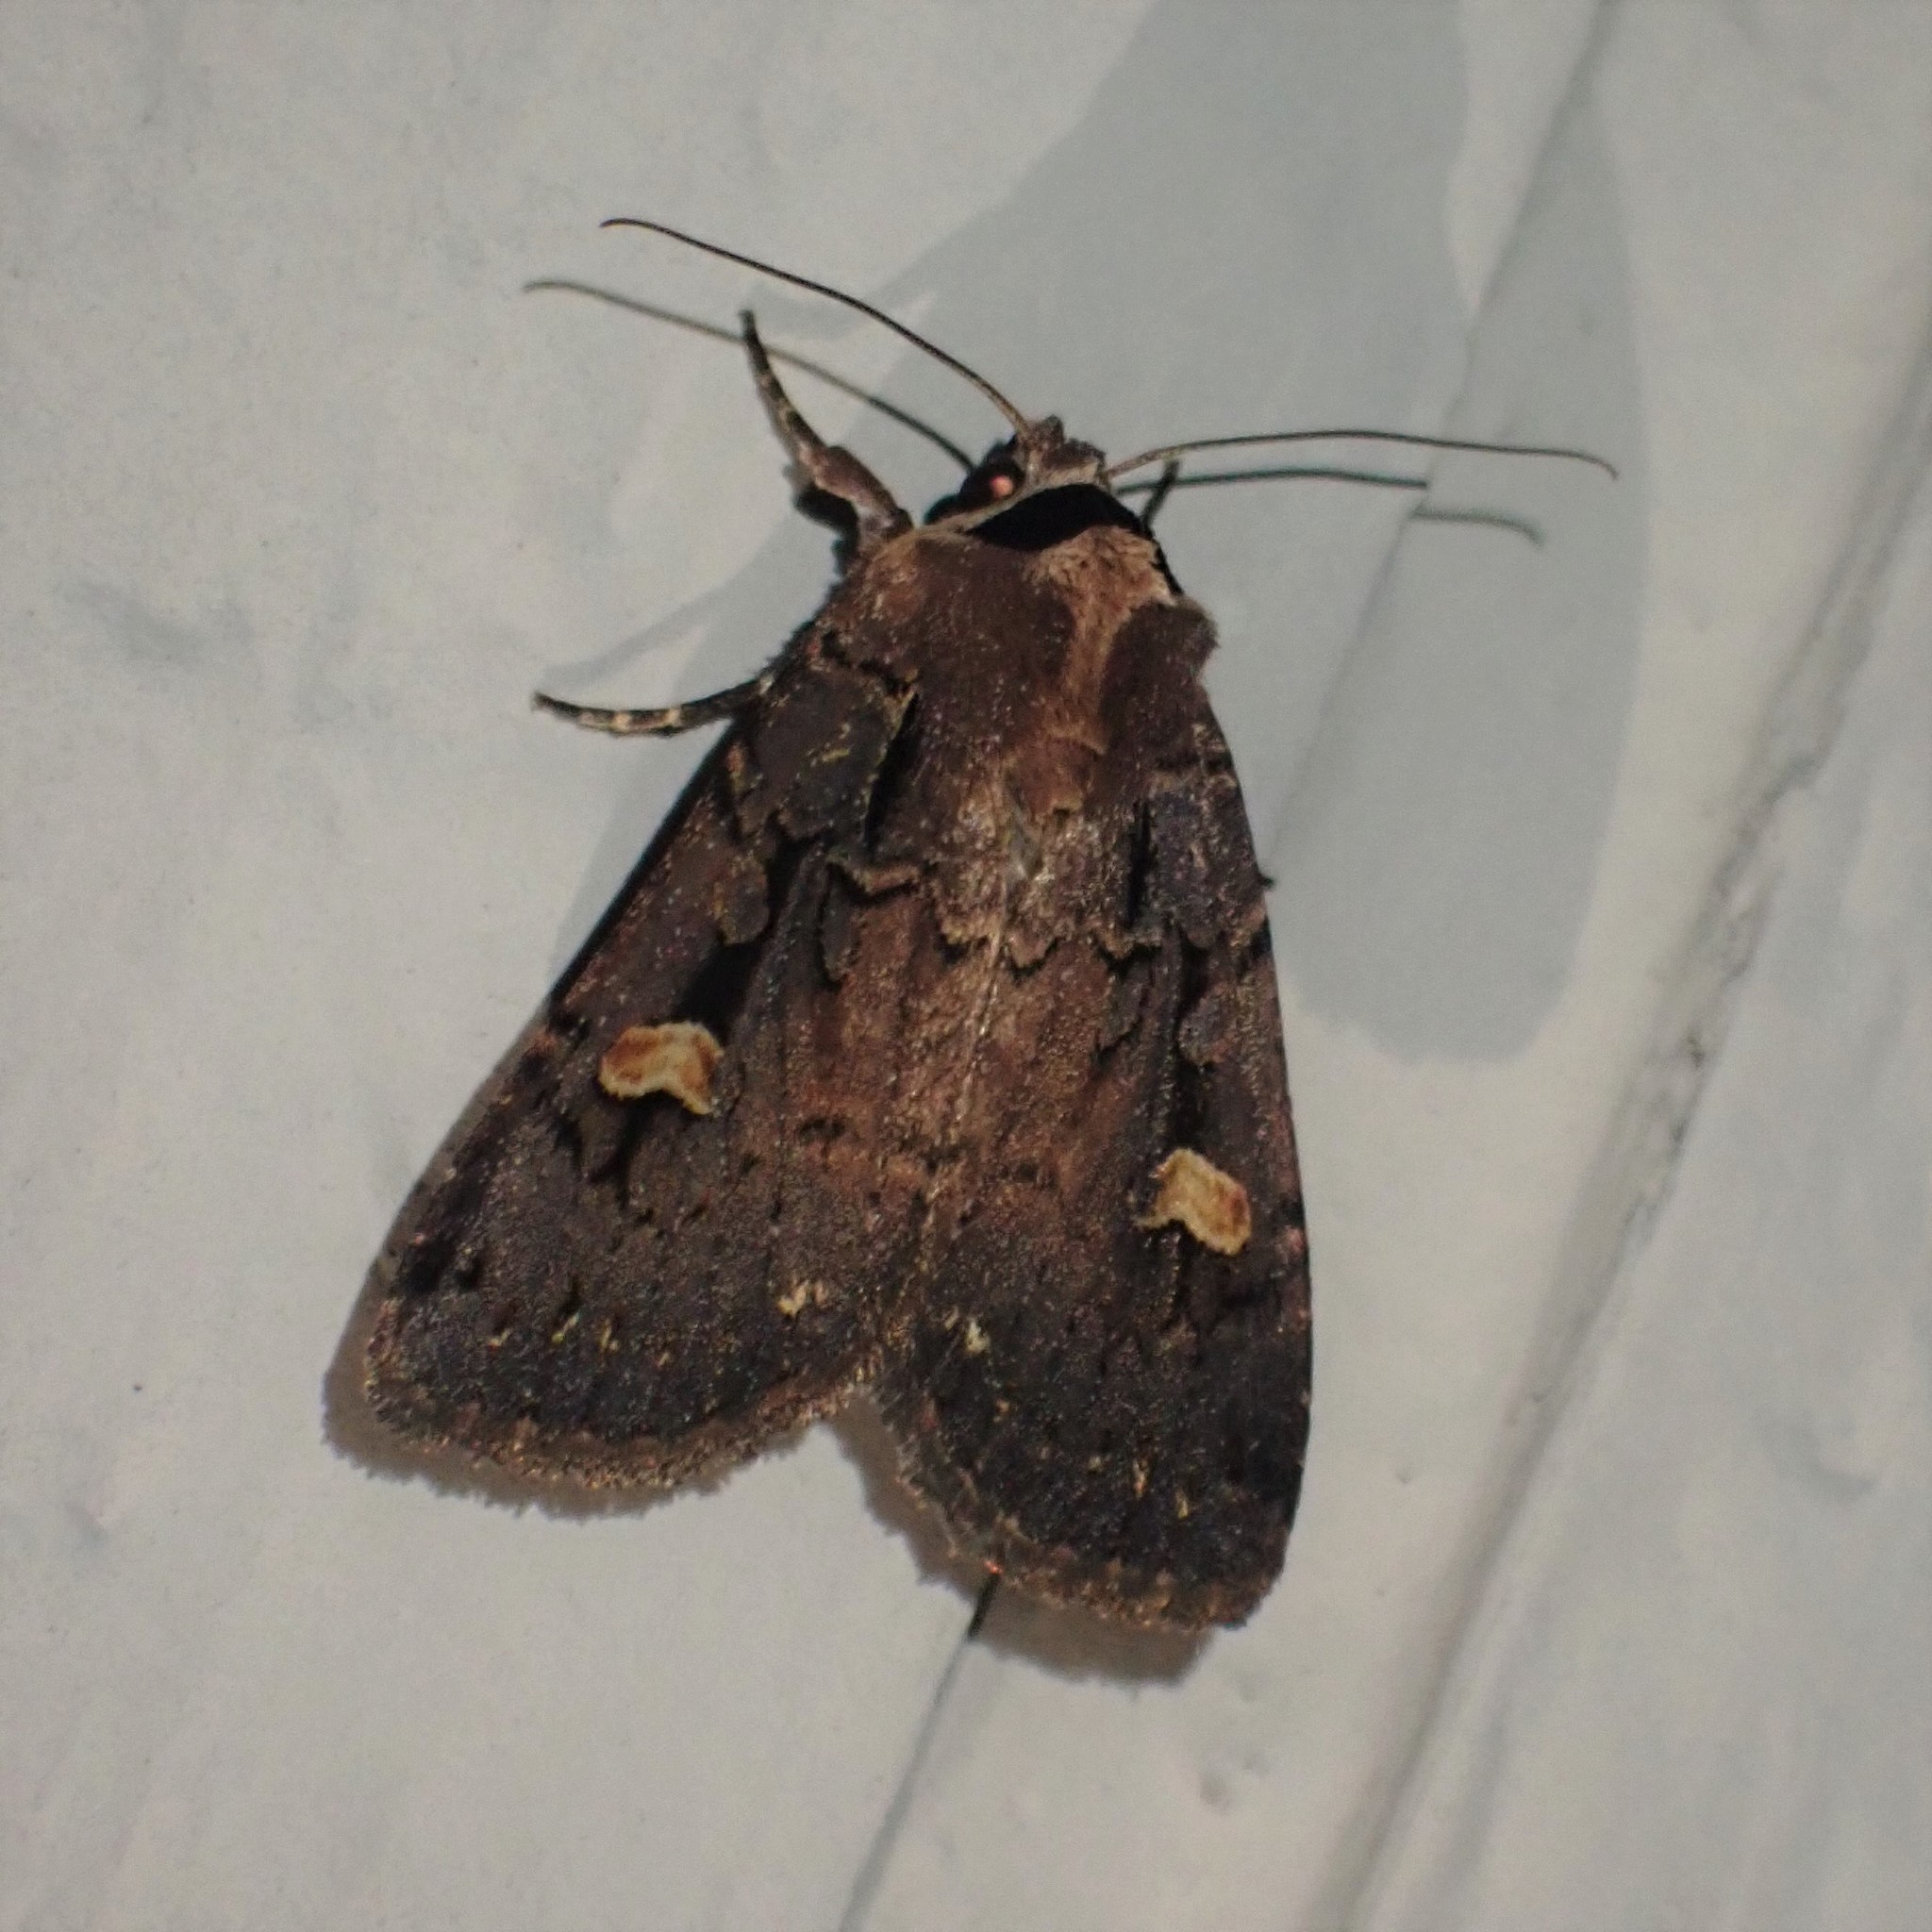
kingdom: Animalia
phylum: Arthropoda
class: Insecta
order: Lepidoptera
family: Noctuidae
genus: Adelphagrotis
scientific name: Adelphagrotis indeterminata
